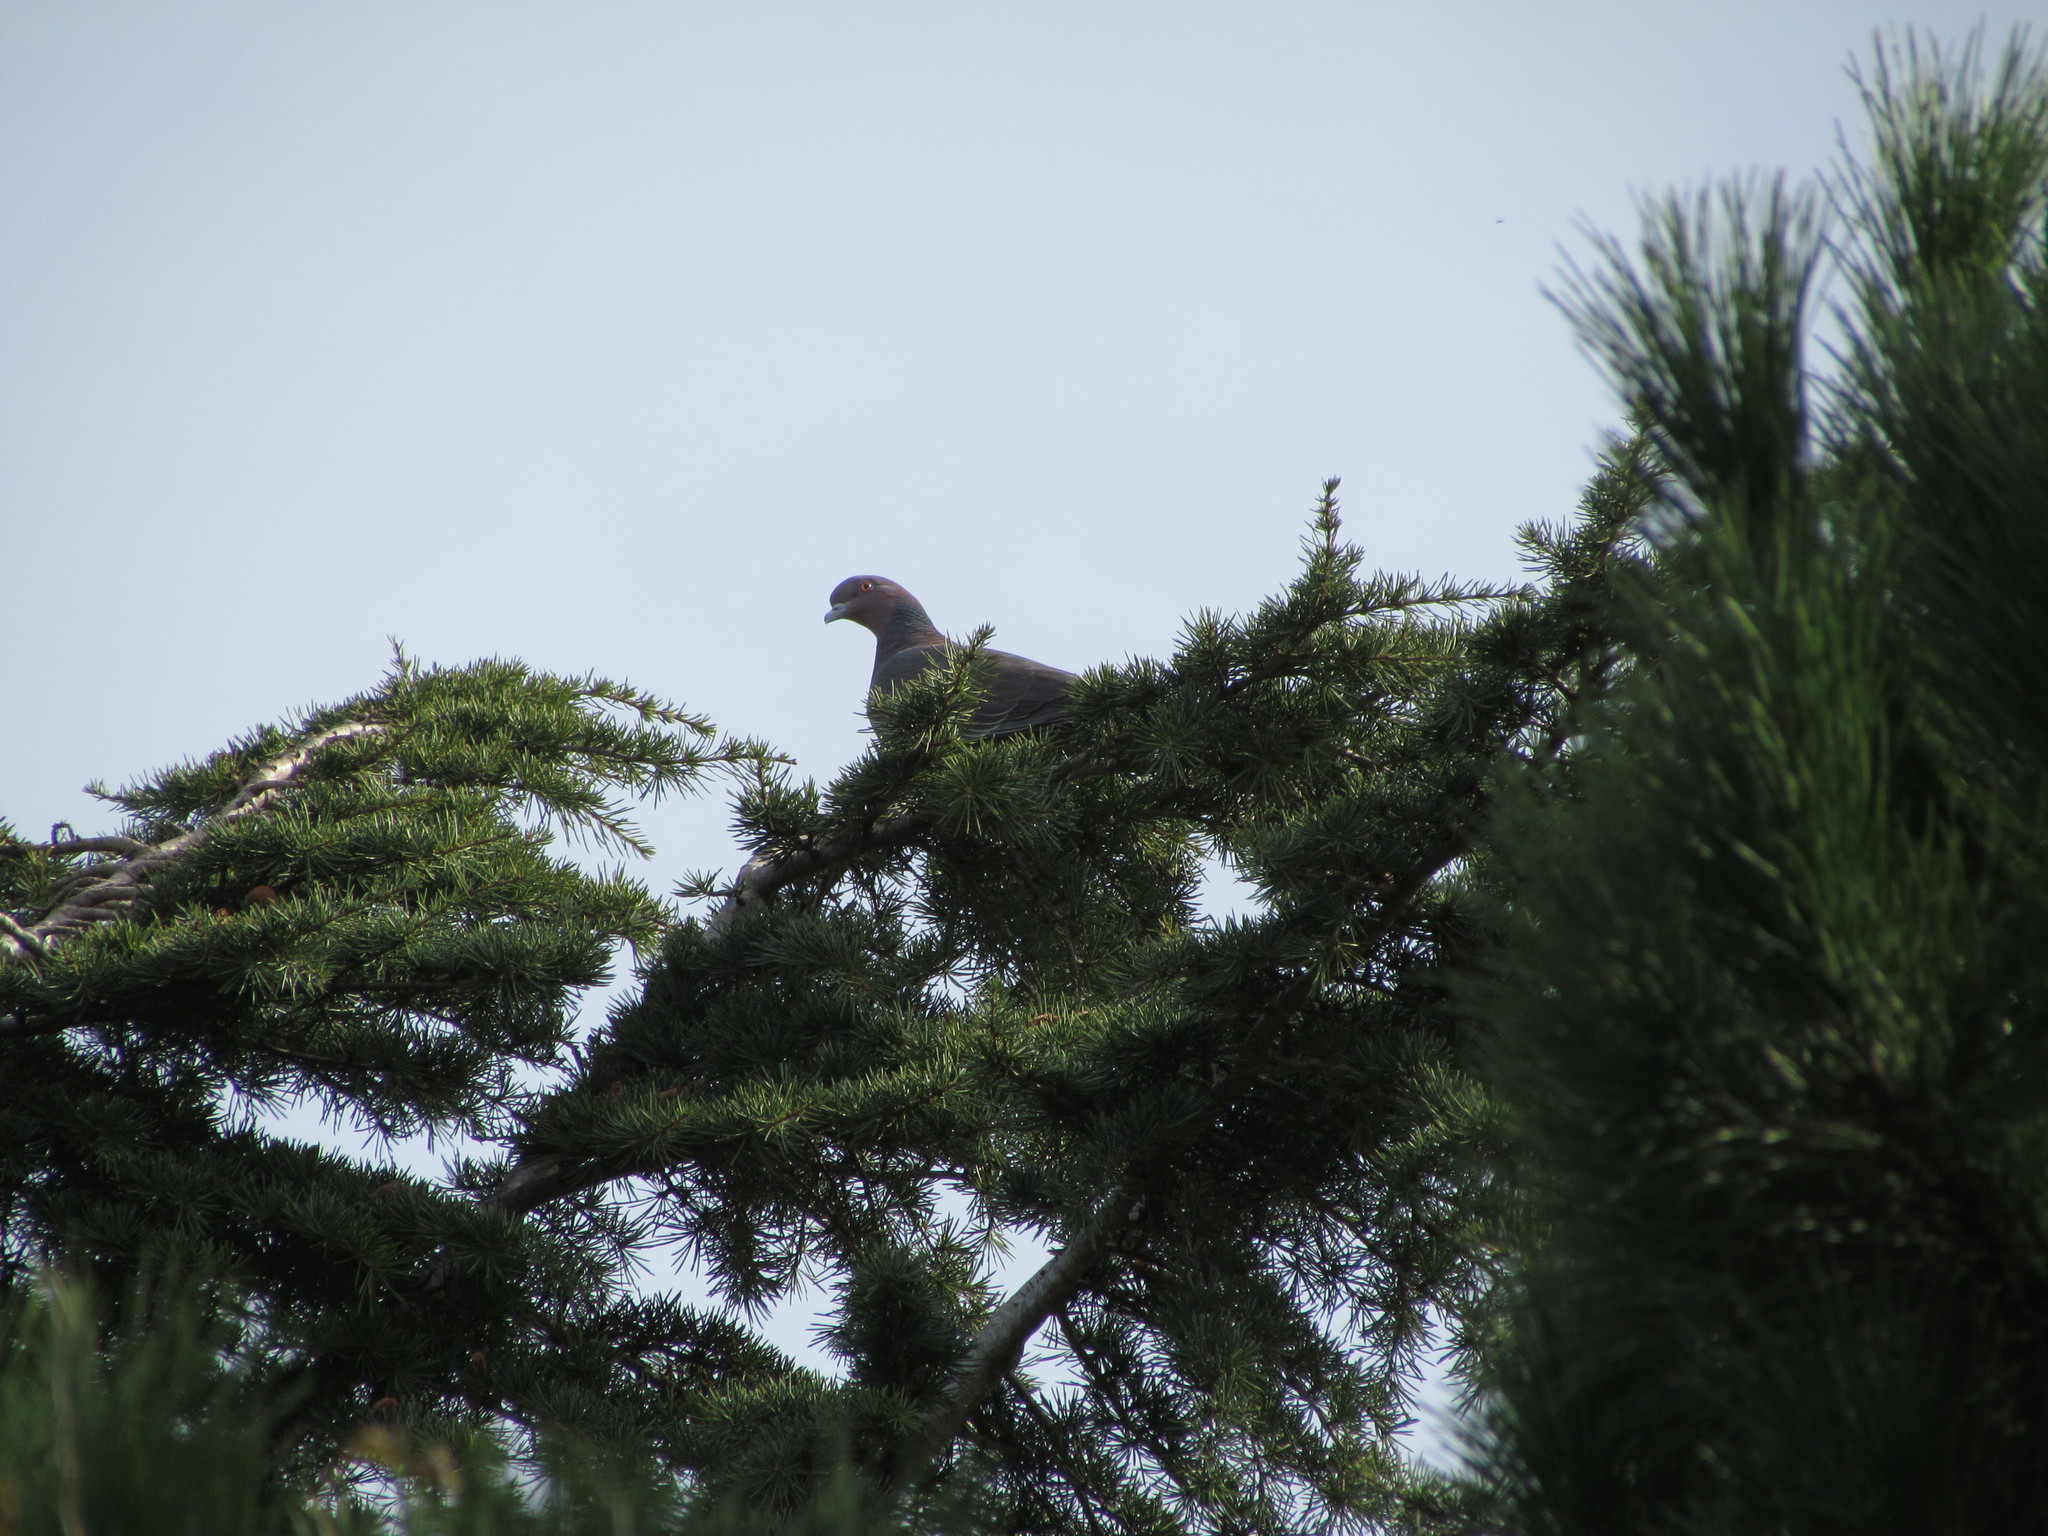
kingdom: Animalia
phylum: Chordata
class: Aves
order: Columbiformes
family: Columbidae
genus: Patagioenas
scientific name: Patagioenas picazuro
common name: Picazuro pigeon
